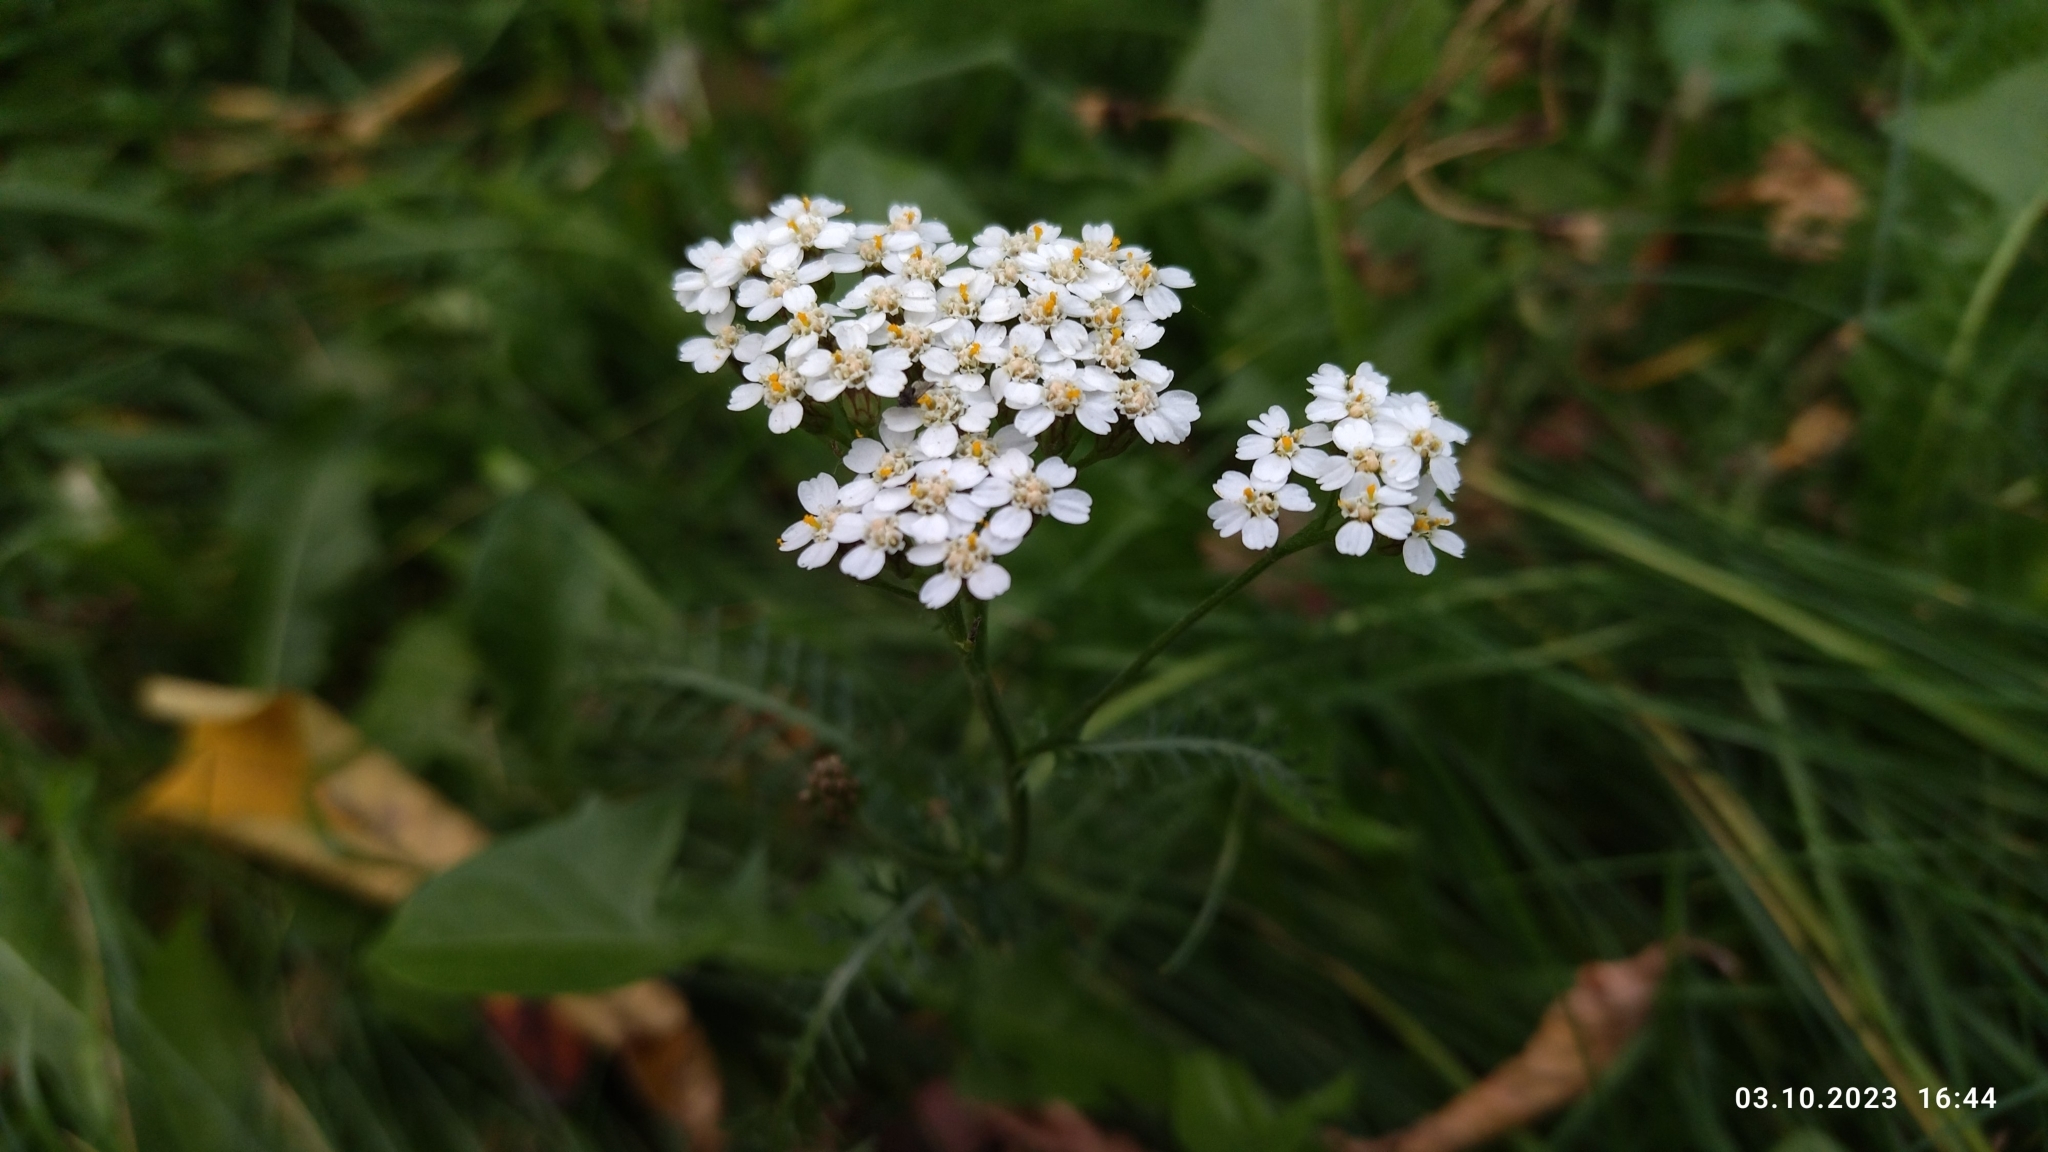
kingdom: Plantae
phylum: Tracheophyta
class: Magnoliopsida
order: Asterales
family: Asteraceae
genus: Achillea
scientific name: Achillea millefolium
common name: Yarrow
